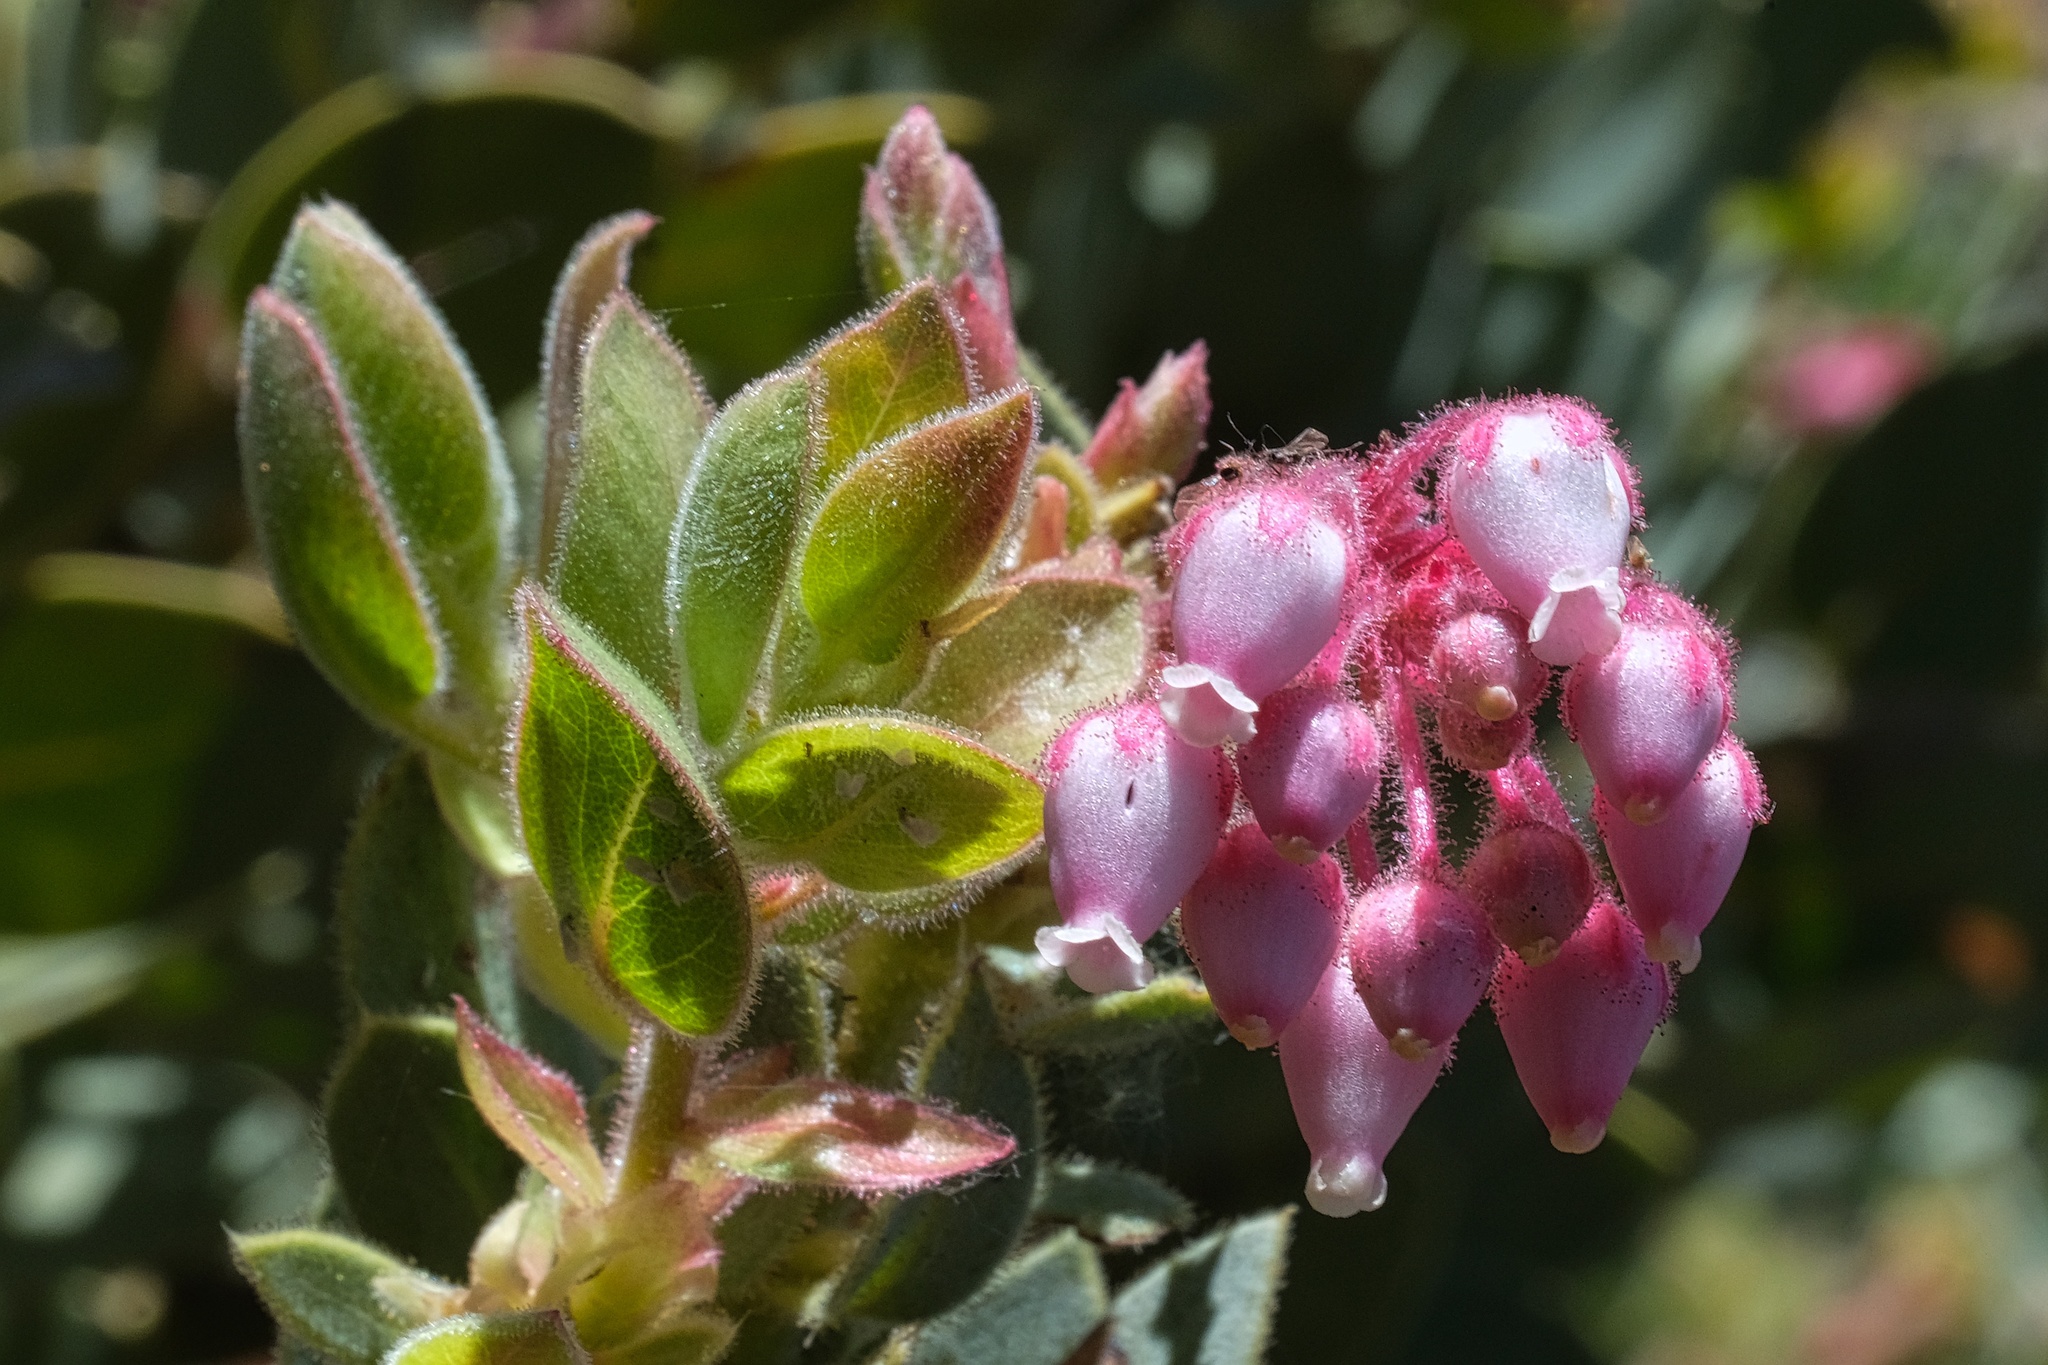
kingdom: Plantae
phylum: Tracheophyta
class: Magnoliopsida
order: Ericales
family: Ericaceae
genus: Arctostaphylos
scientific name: Arctostaphylos pringlei
